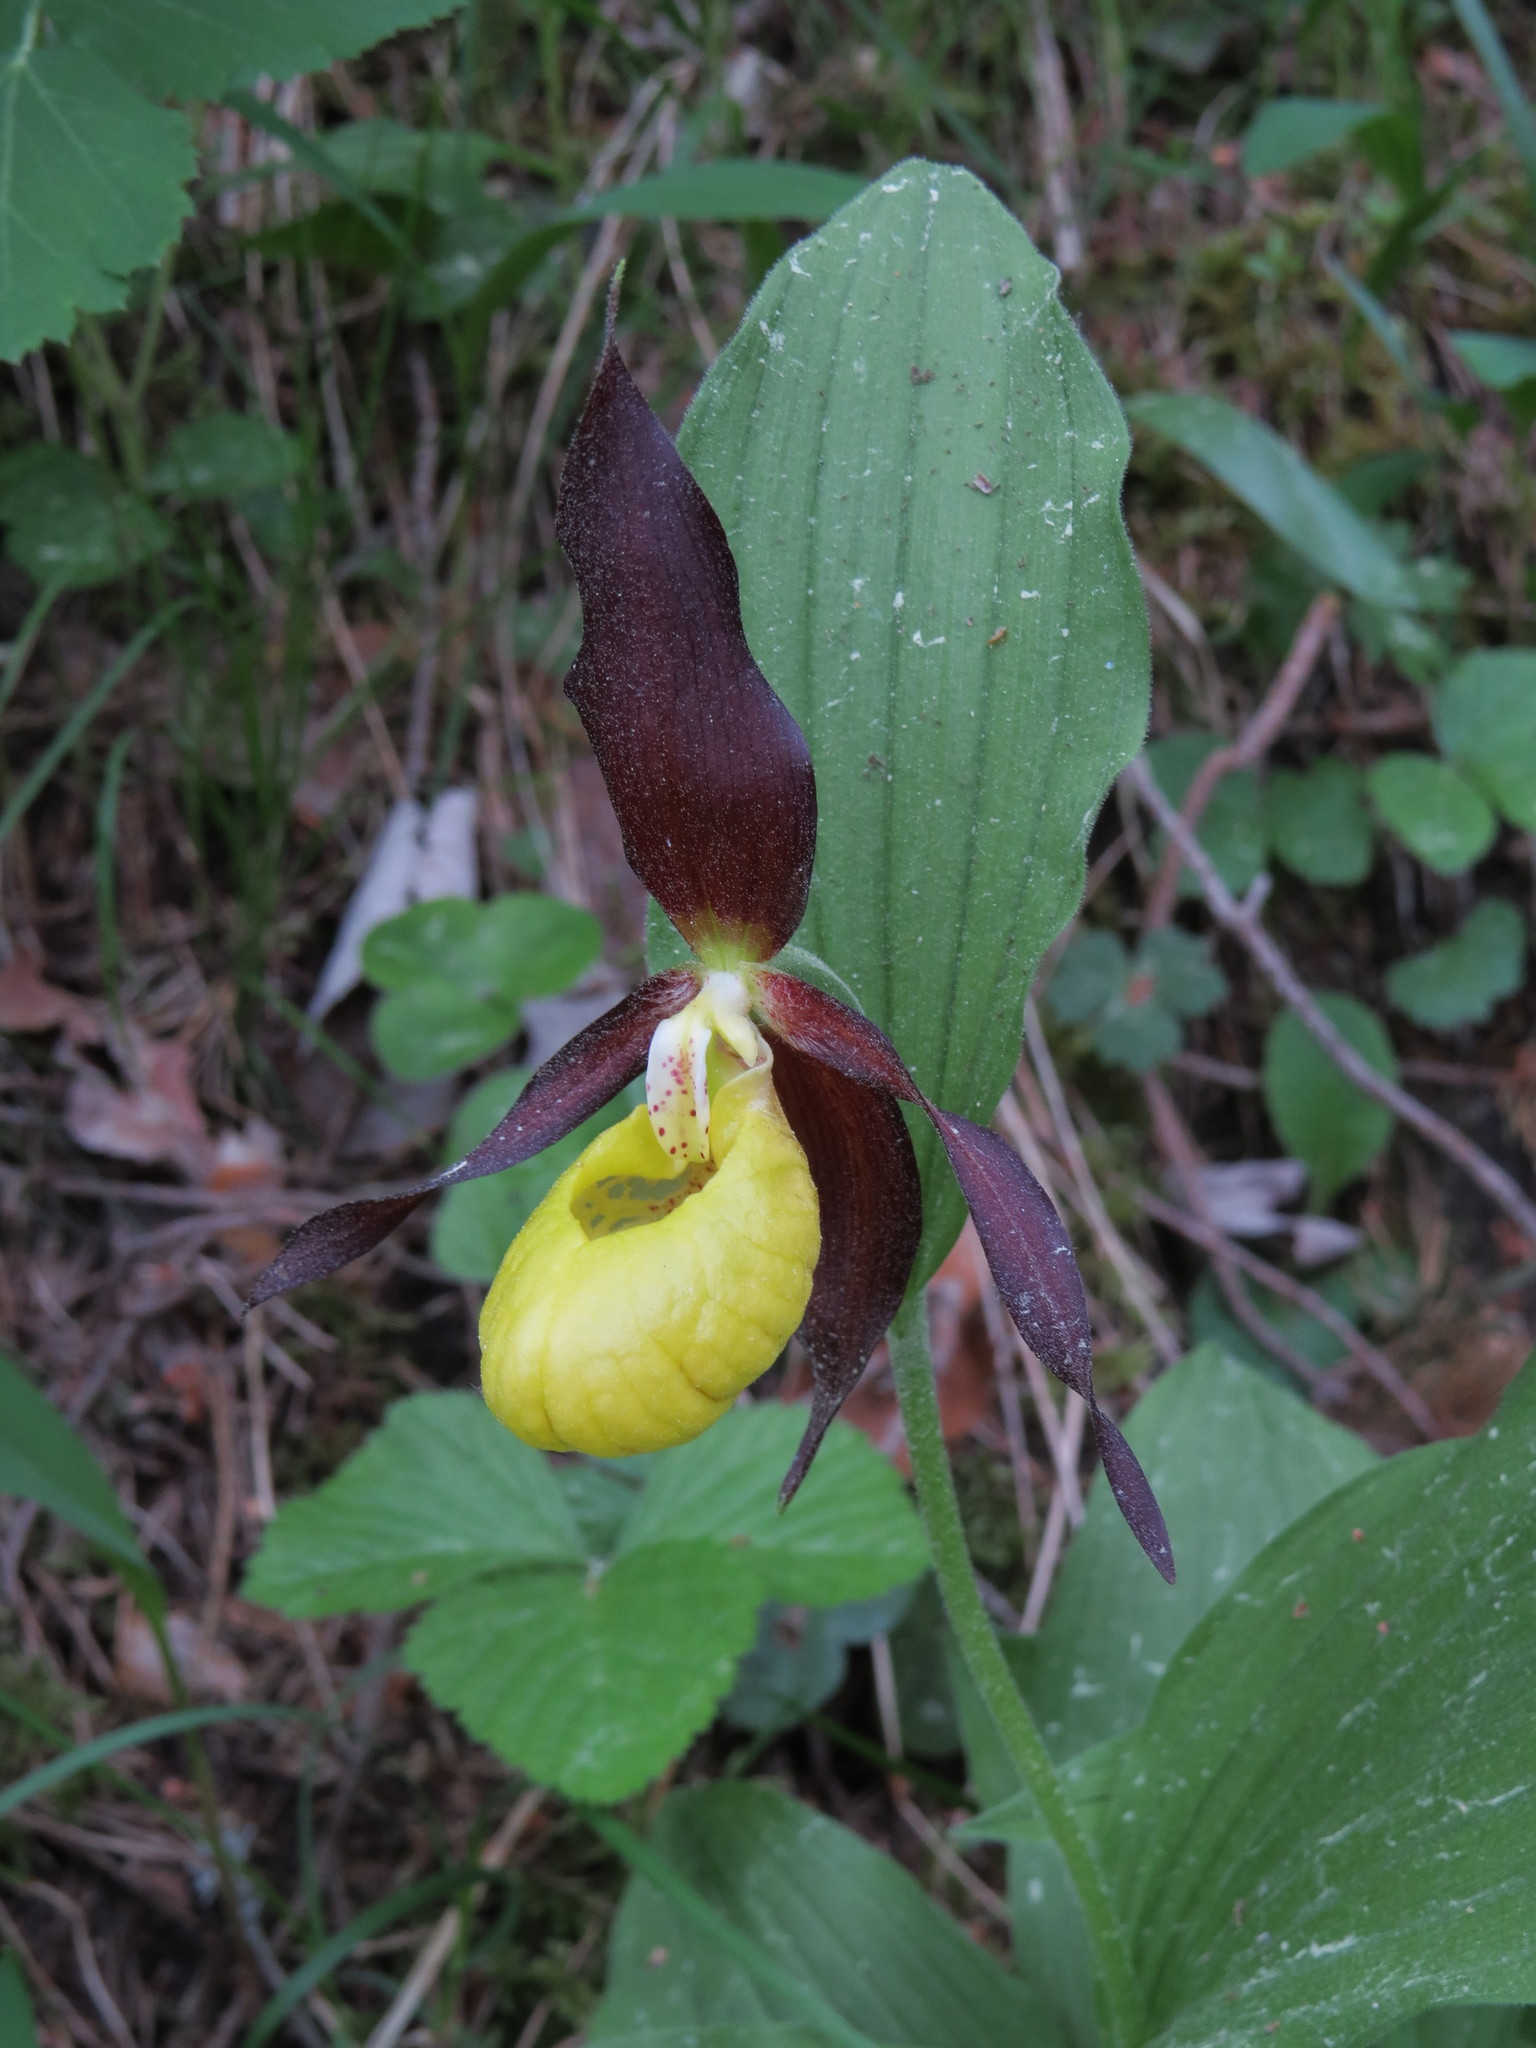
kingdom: Plantae
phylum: Tracheophyta
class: Liliopsida
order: Asparagales
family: Orchidaceae
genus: Cypripedium
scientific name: Cypripedium calceolus
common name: Lady's-slipper
